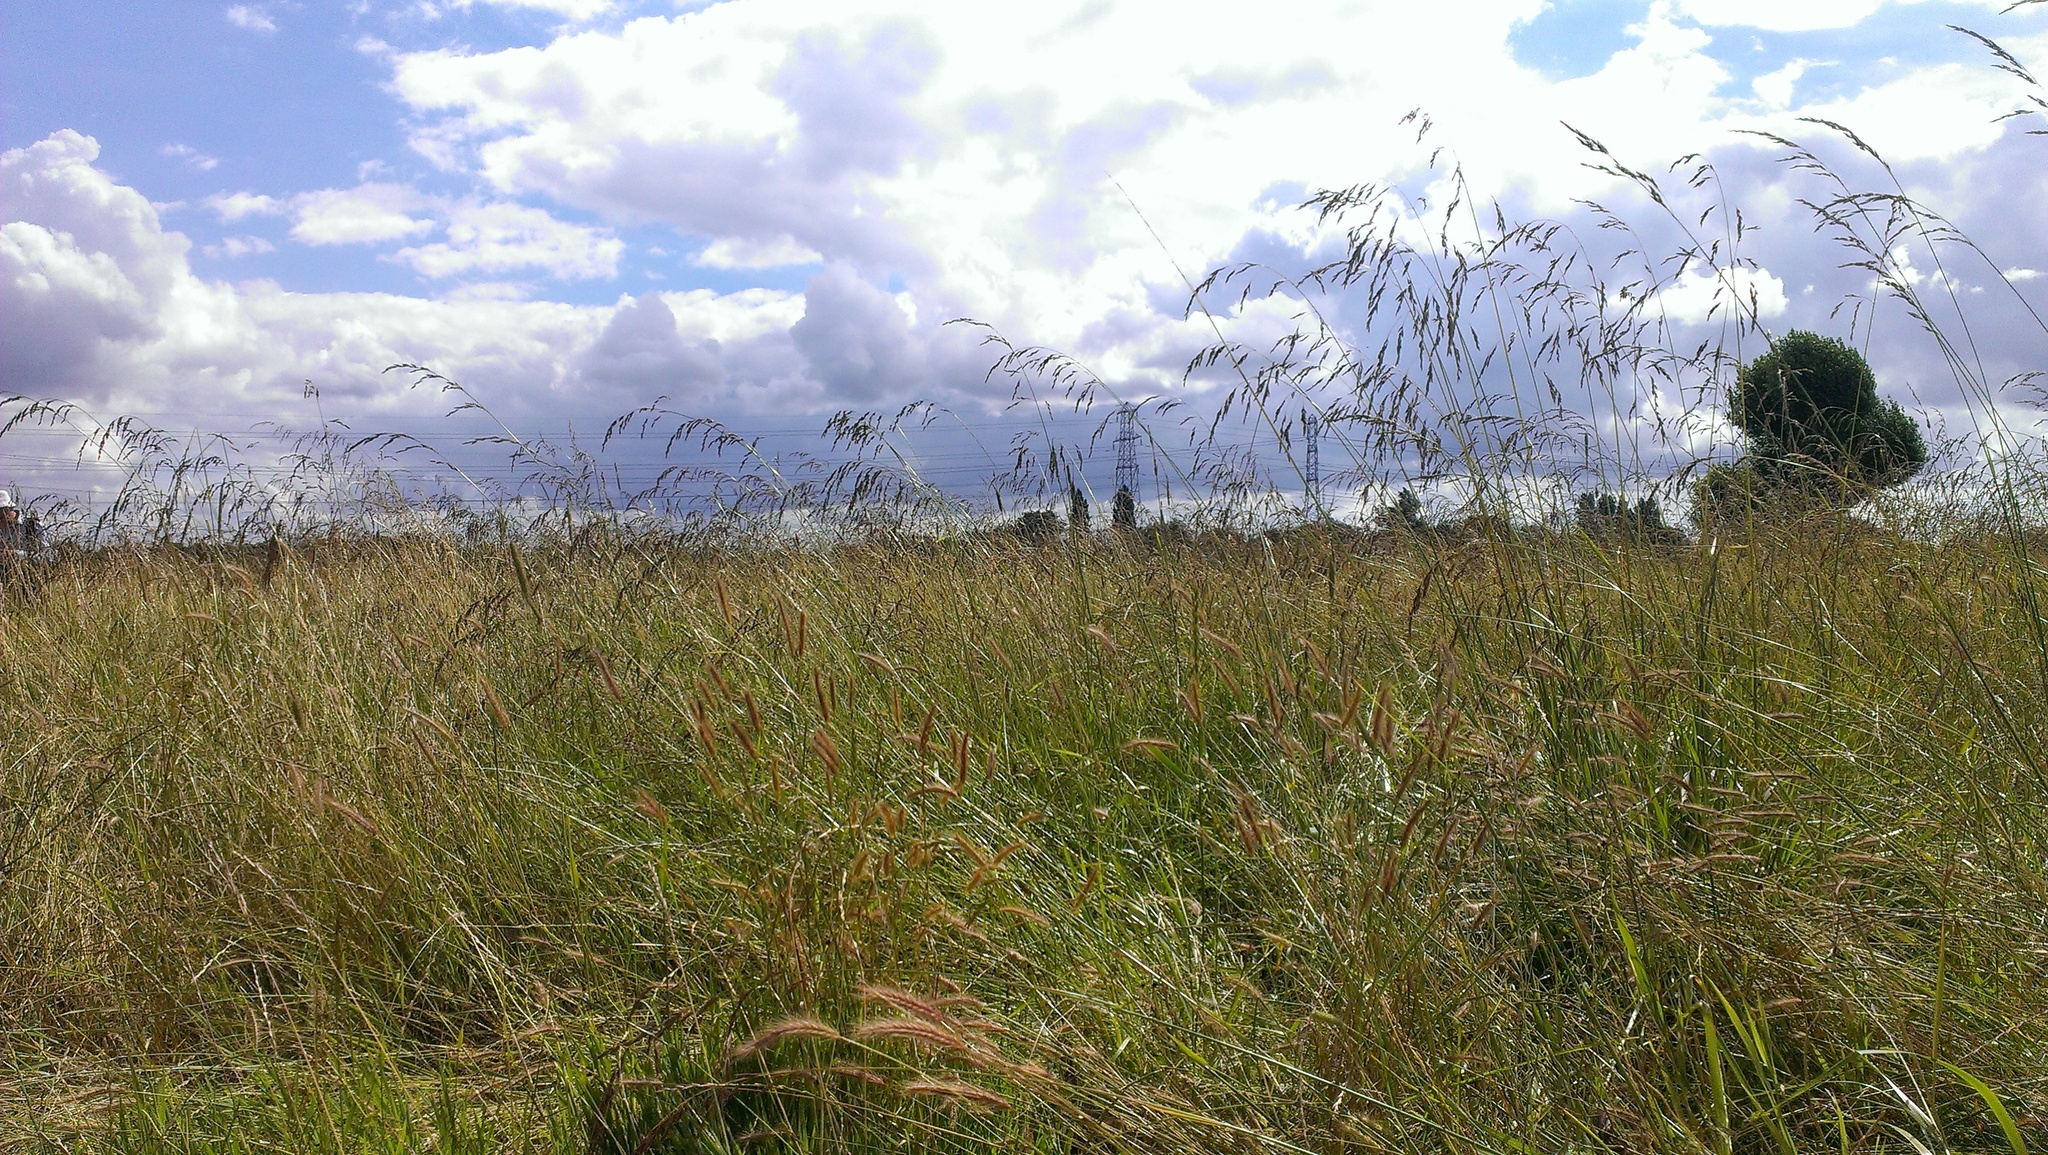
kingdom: Plantae
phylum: Tracheophyta
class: Liliopsida
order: Poales
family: Poaceae
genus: Lolium
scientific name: Lolium arundinaceum
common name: Reed fescue
